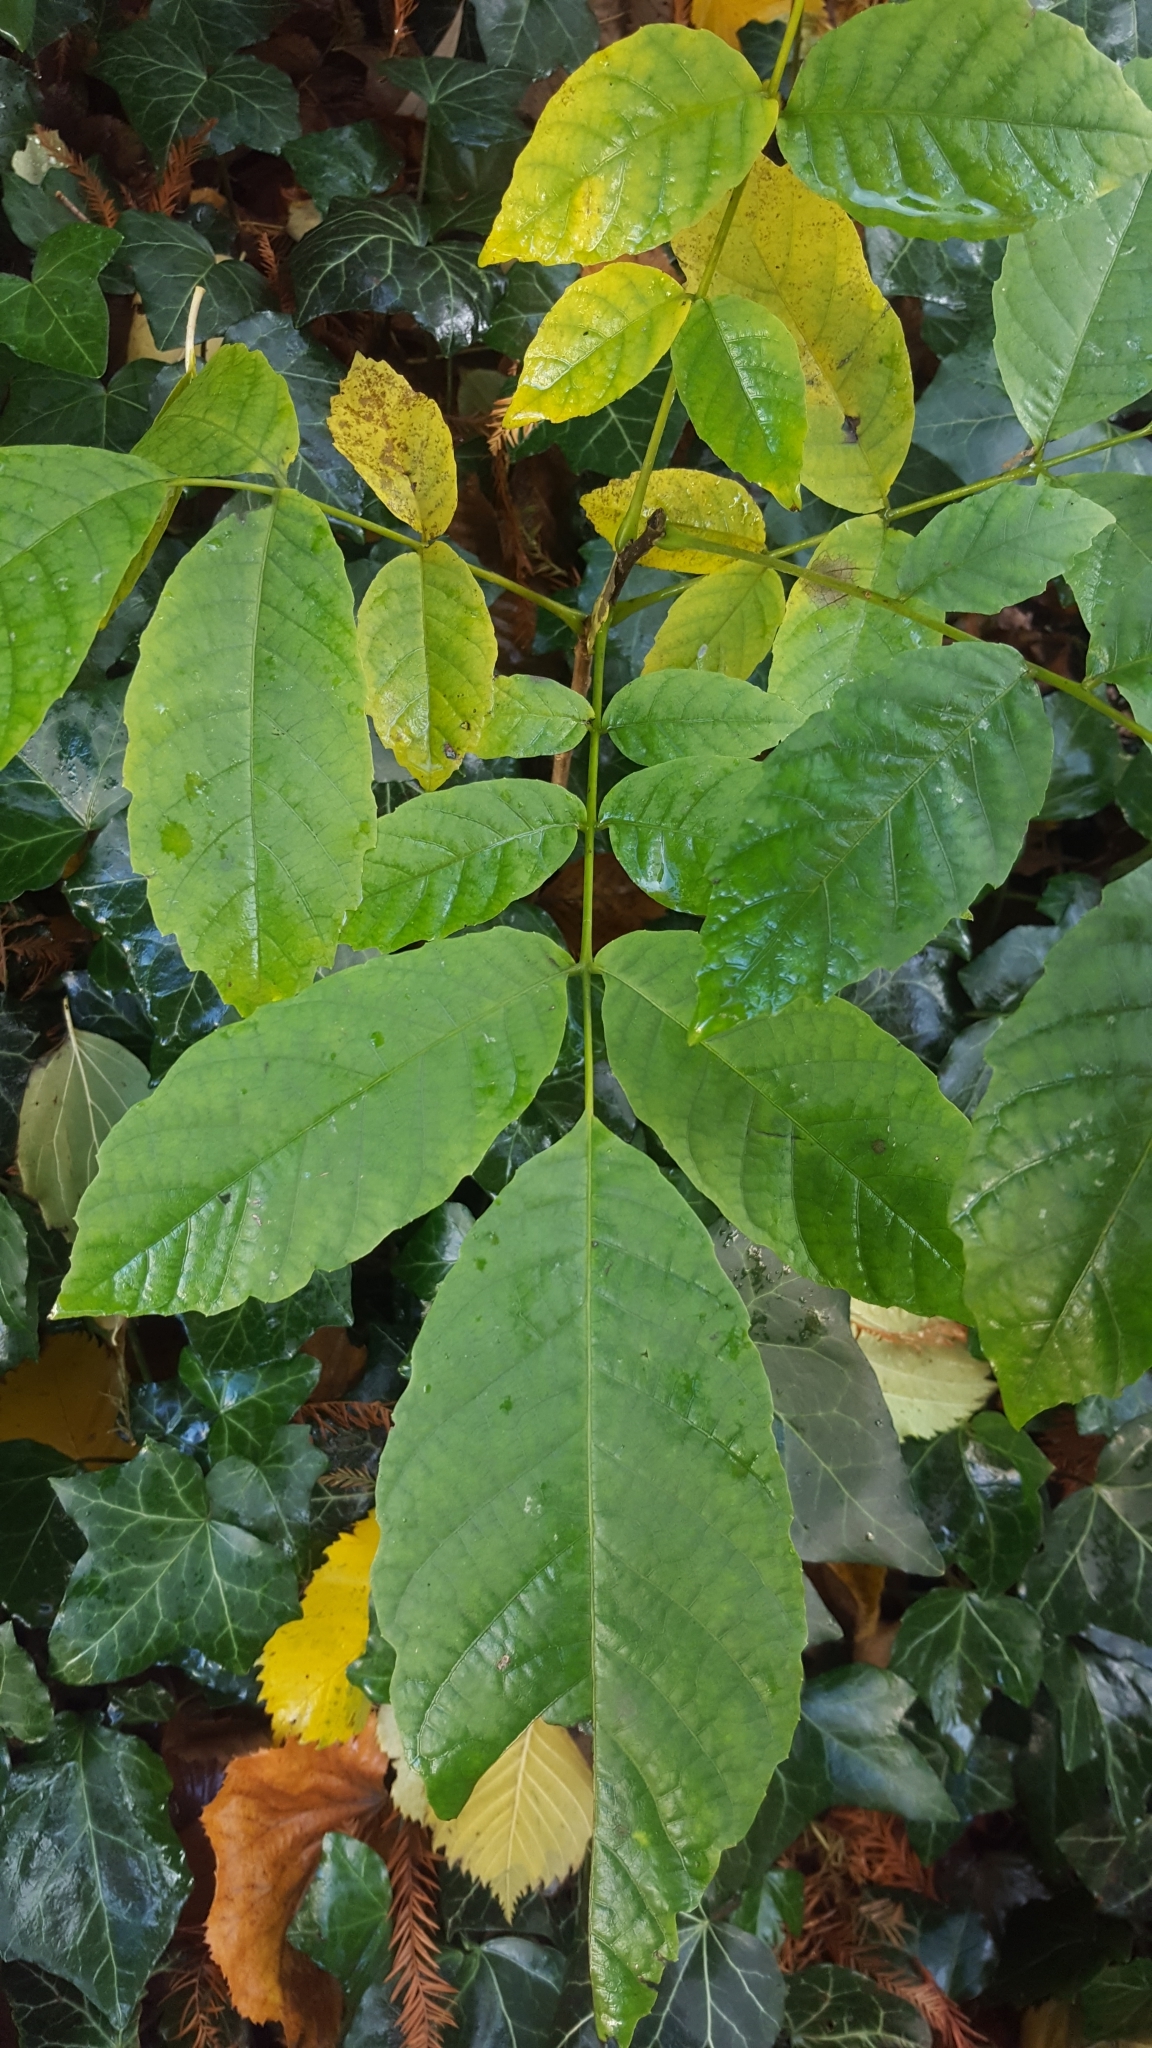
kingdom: Plantae
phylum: Tracheophyta
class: Magnoliopsida
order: Fagales
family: Juglandaceae
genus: Juglans
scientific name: Juglans regia
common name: Walnut
